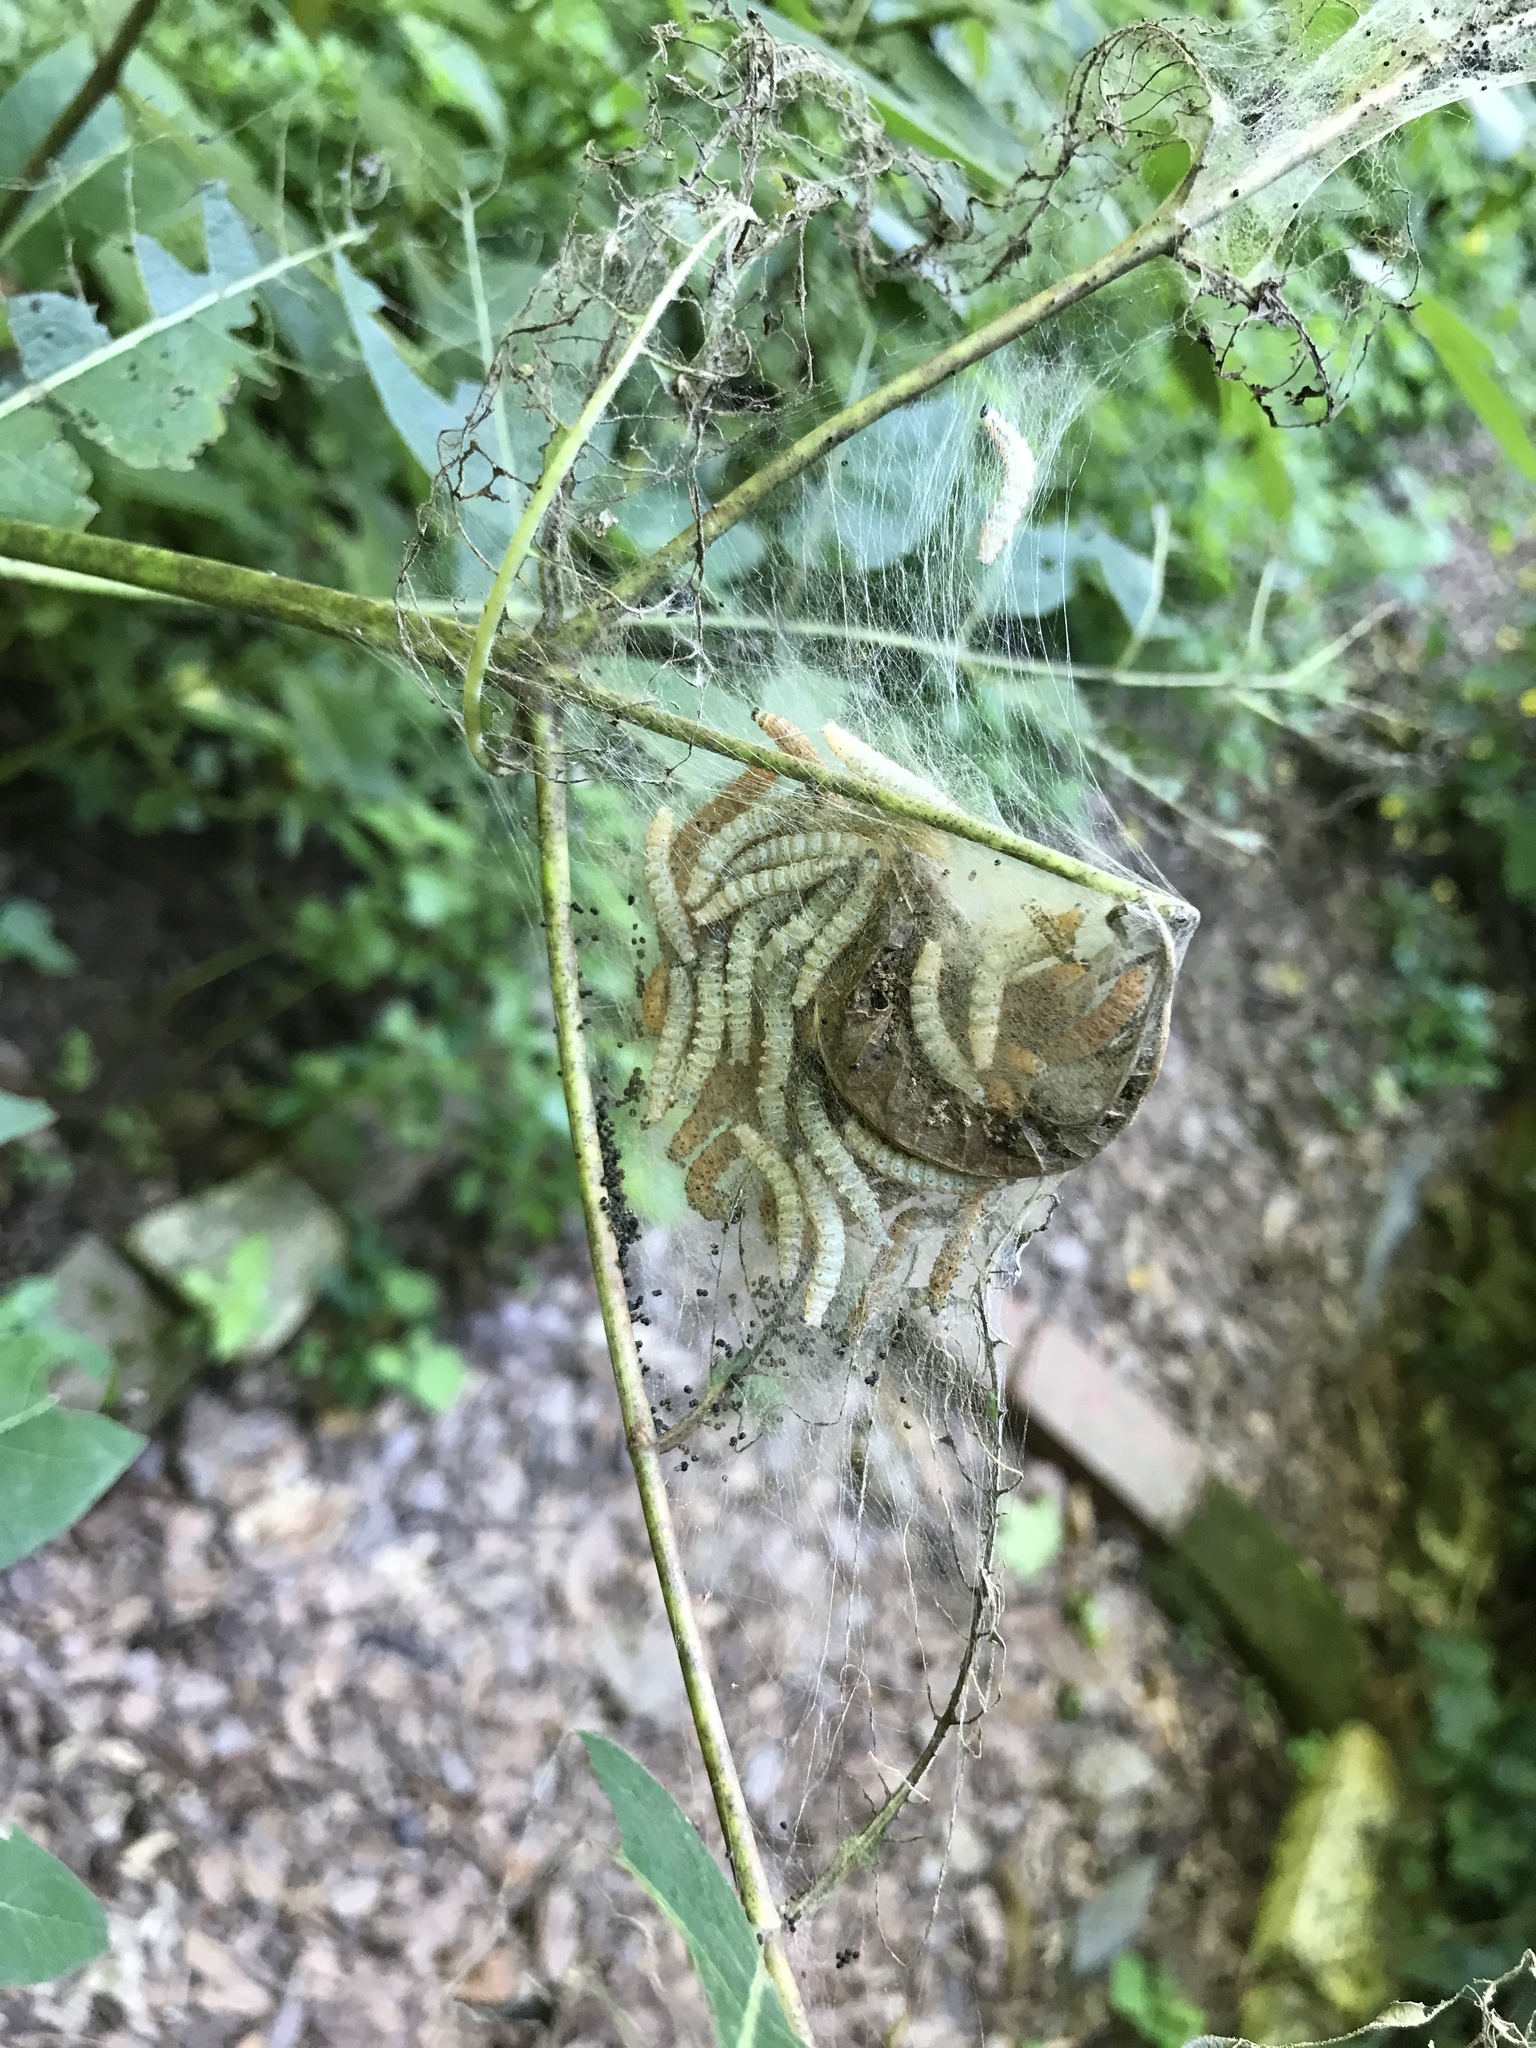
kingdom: Animalia
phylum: Arthropoda
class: Insecta
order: Lepidoptera
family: Crambidae
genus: Saucrobotys
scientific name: Saucrobotys futilalis
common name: Dogbane saucrobotys moth
